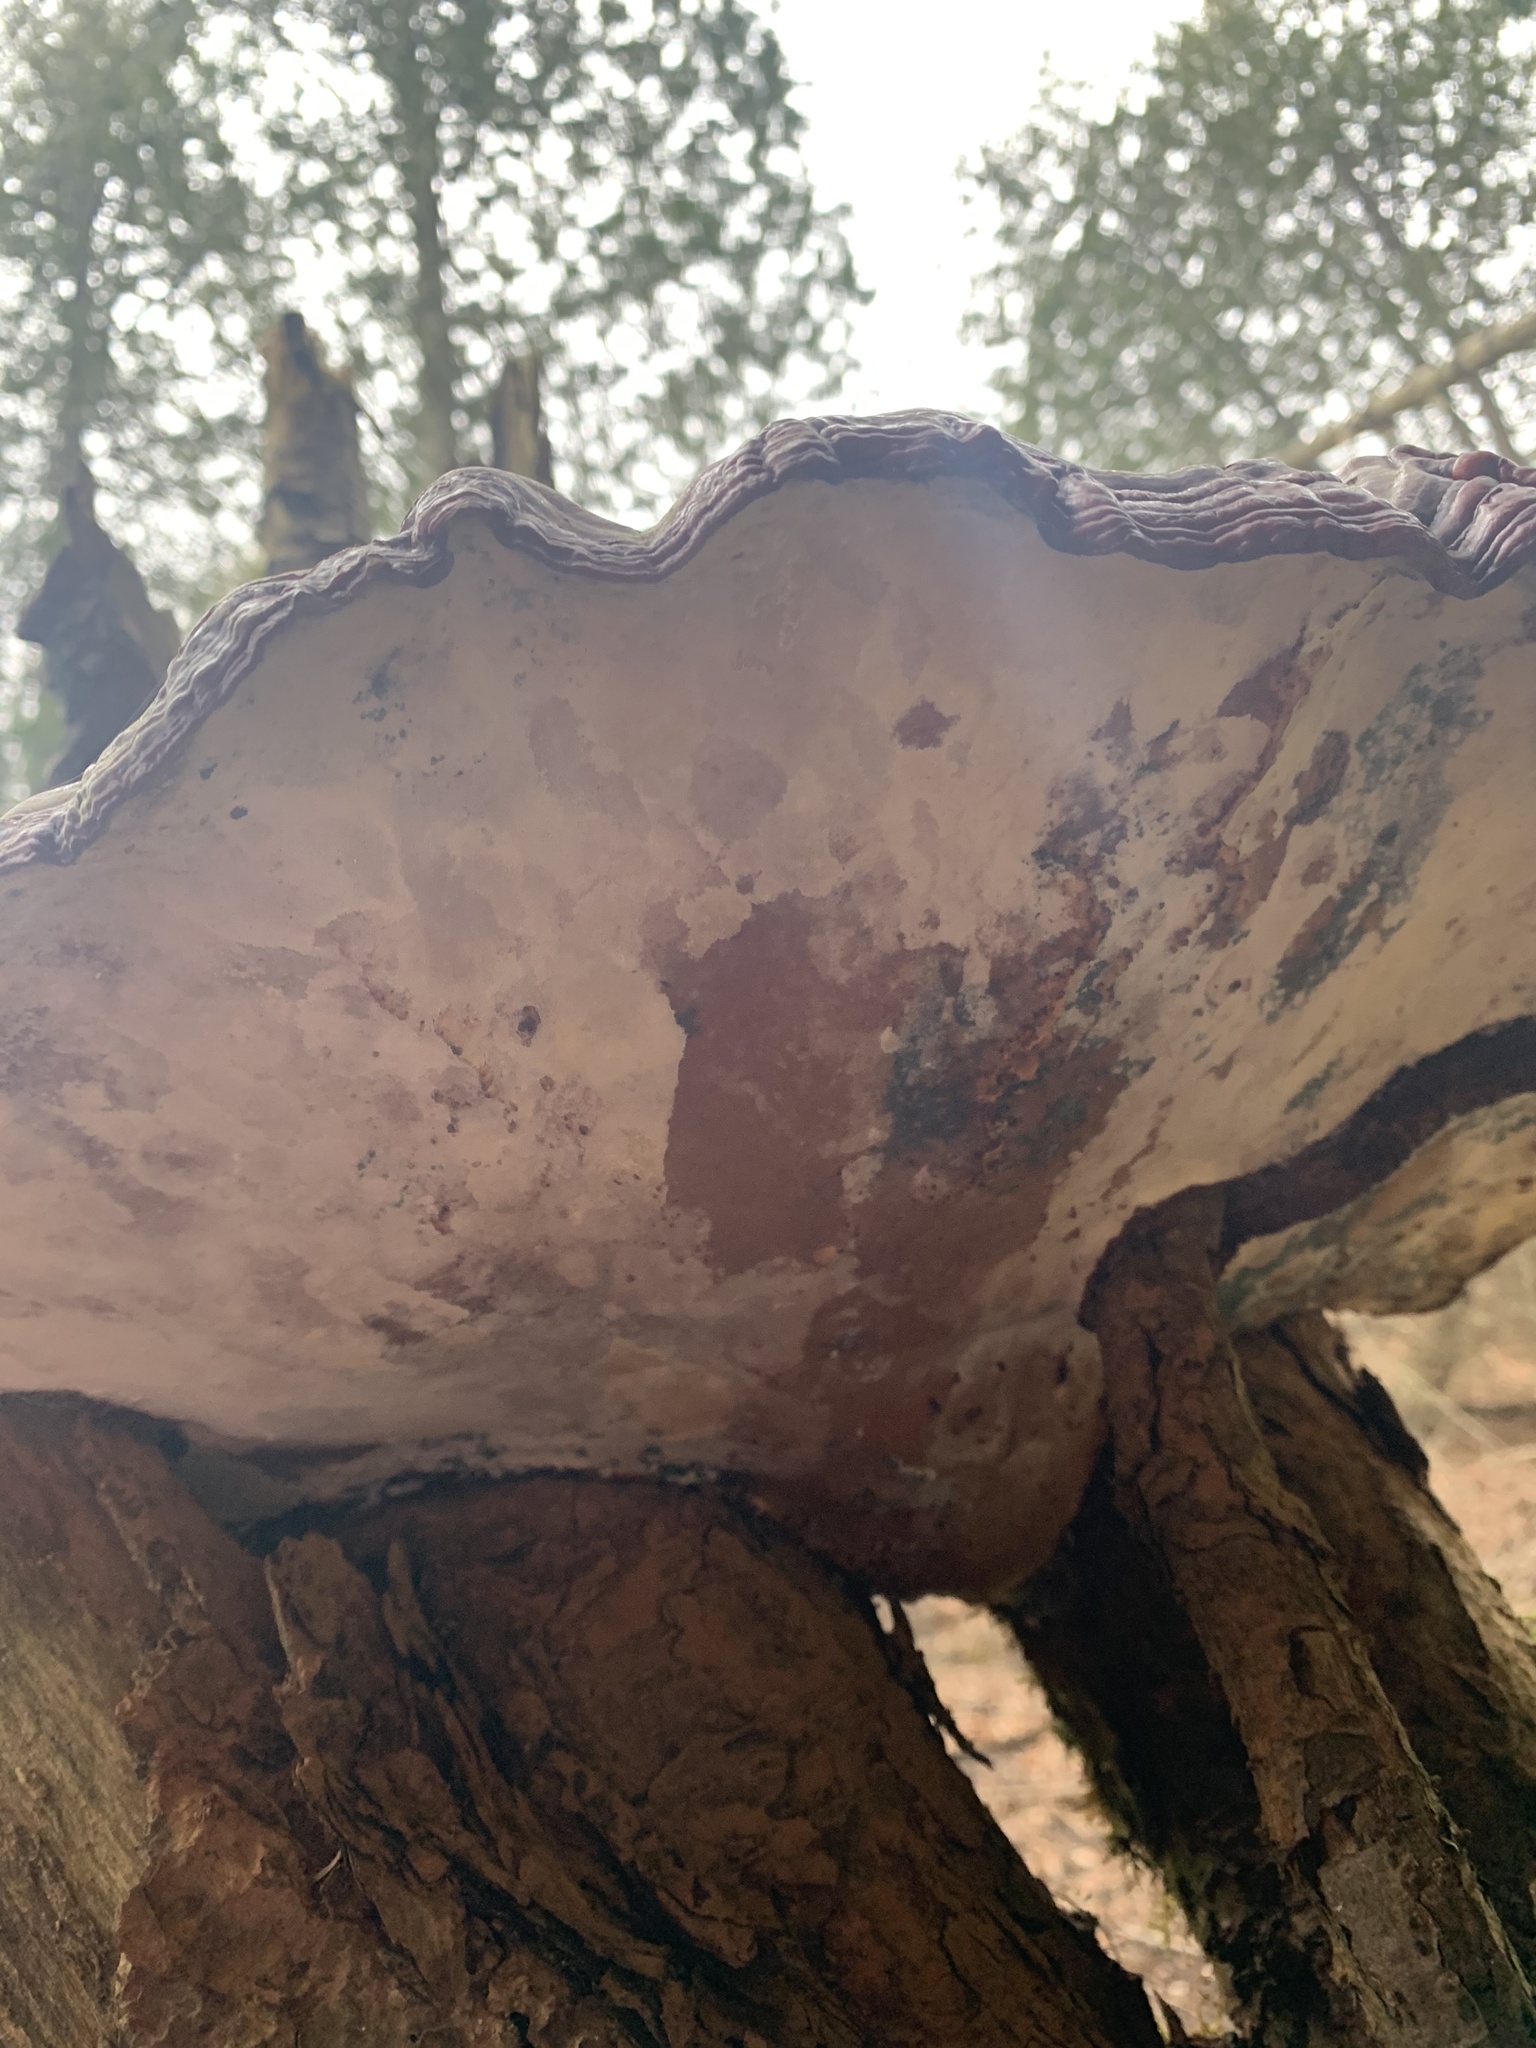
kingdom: Fungi
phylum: Basidiomycota
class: Agaricomycetes
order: Polyporales
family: Polyporaceae
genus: Ganoderma
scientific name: Ganoderma tsugae
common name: Hemlock varnish shelf
